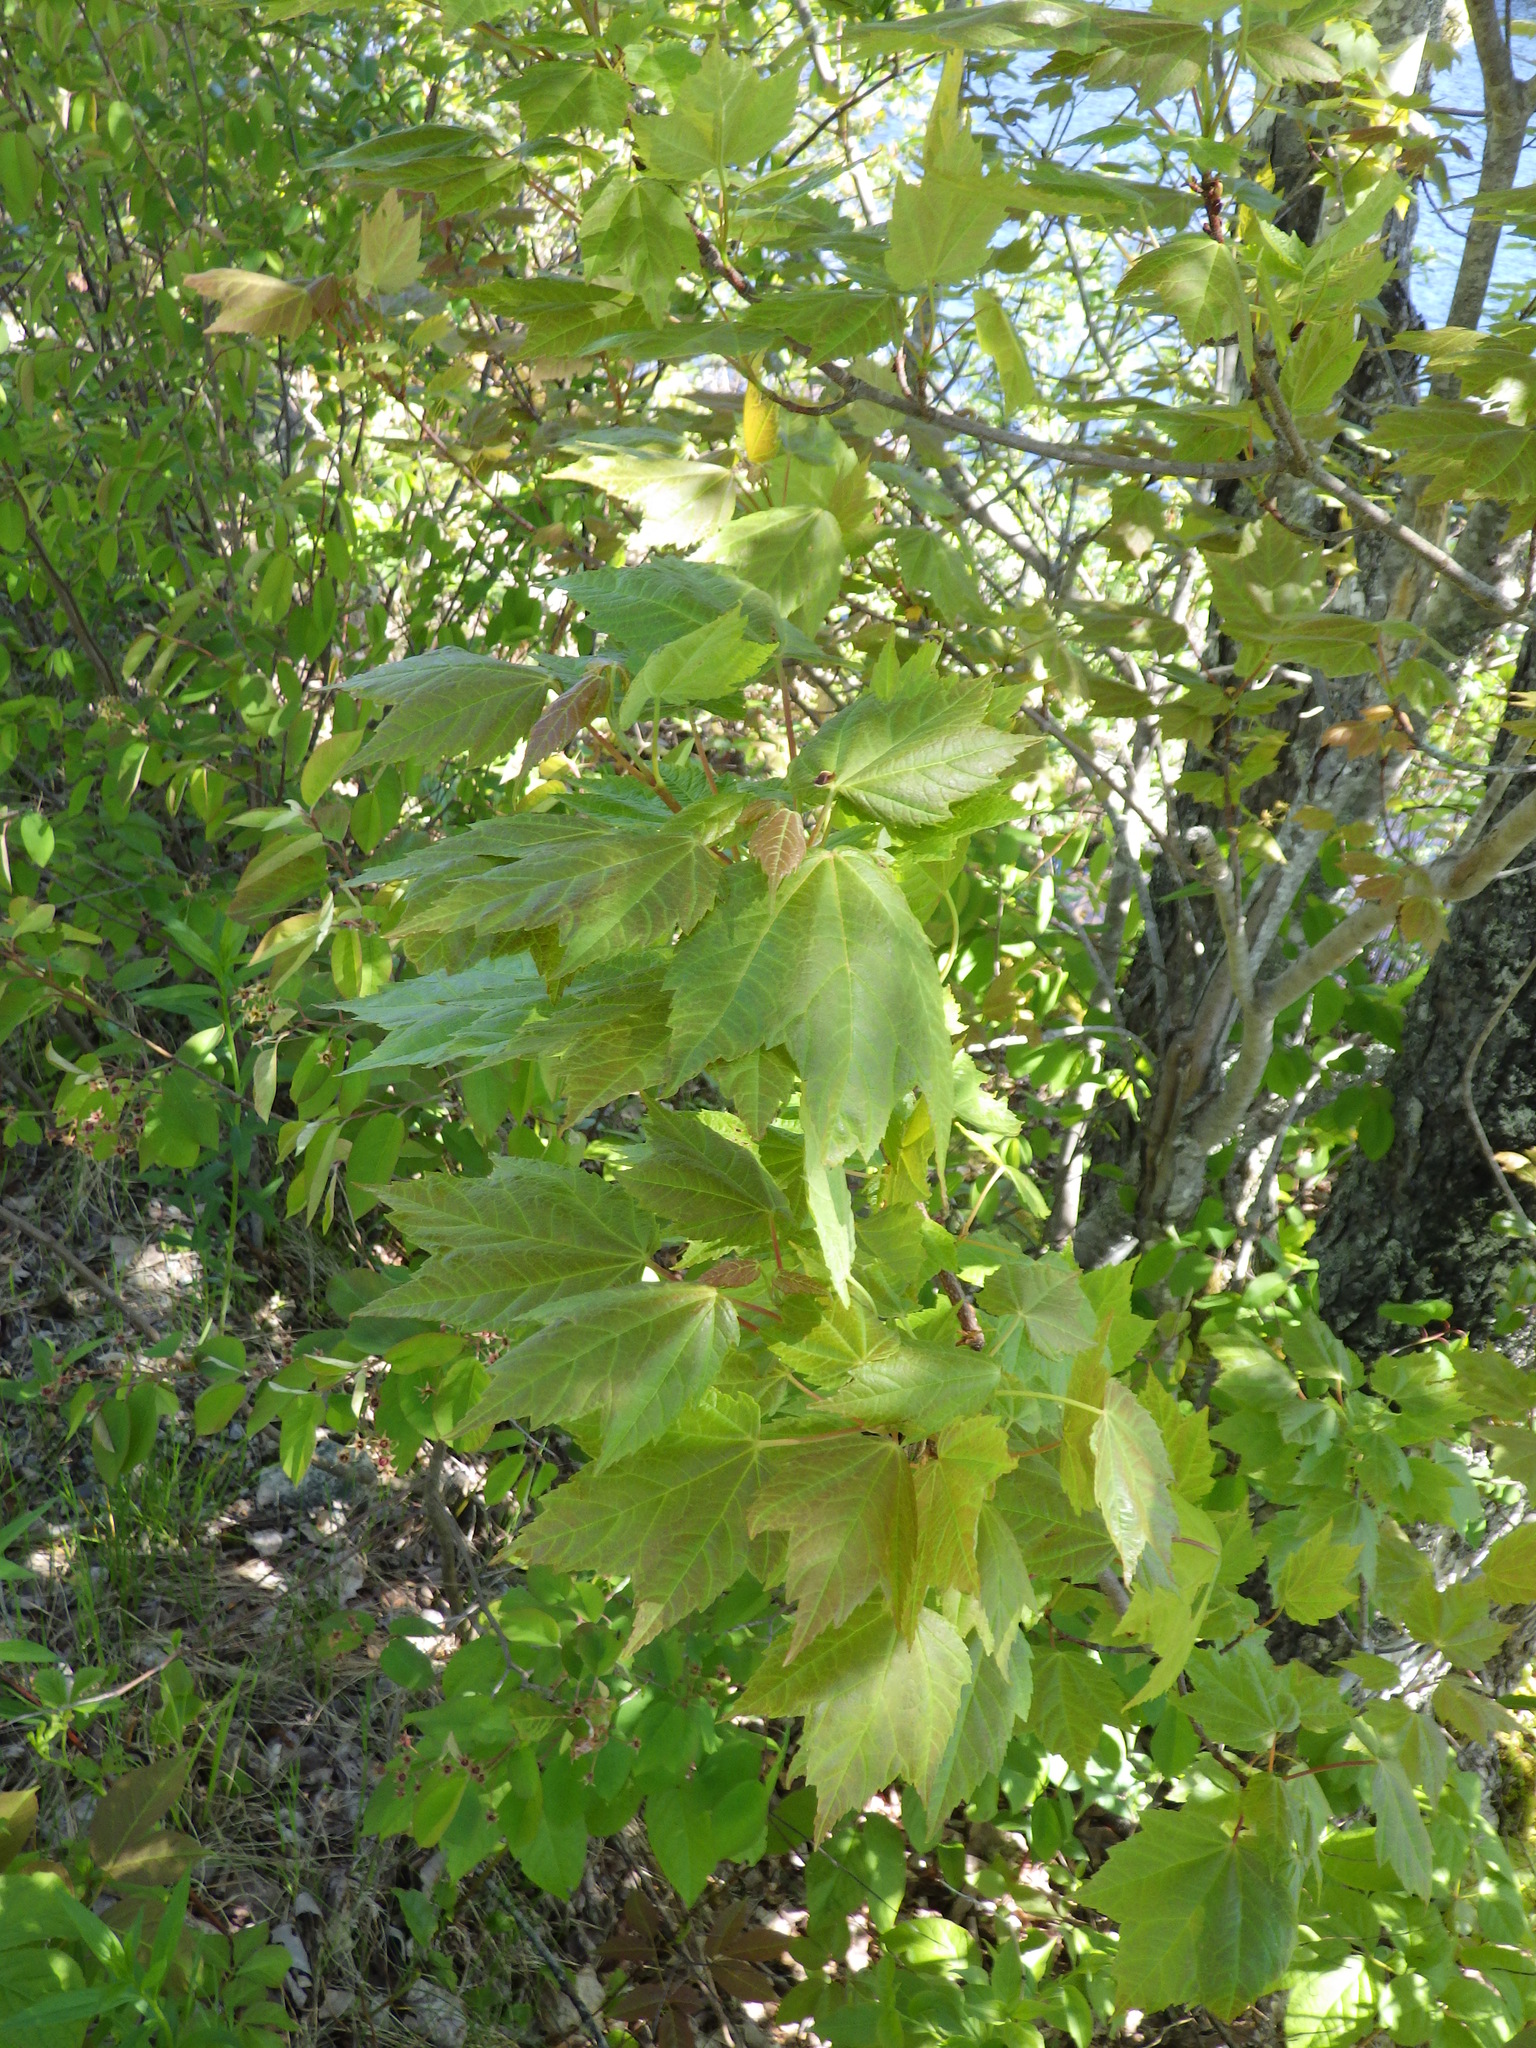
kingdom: Plantae
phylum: Tracheophyta
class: Magnoliopsida
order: Sapindales
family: Sapindaceae
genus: Acer
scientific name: Acer rubrum
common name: Red maple
